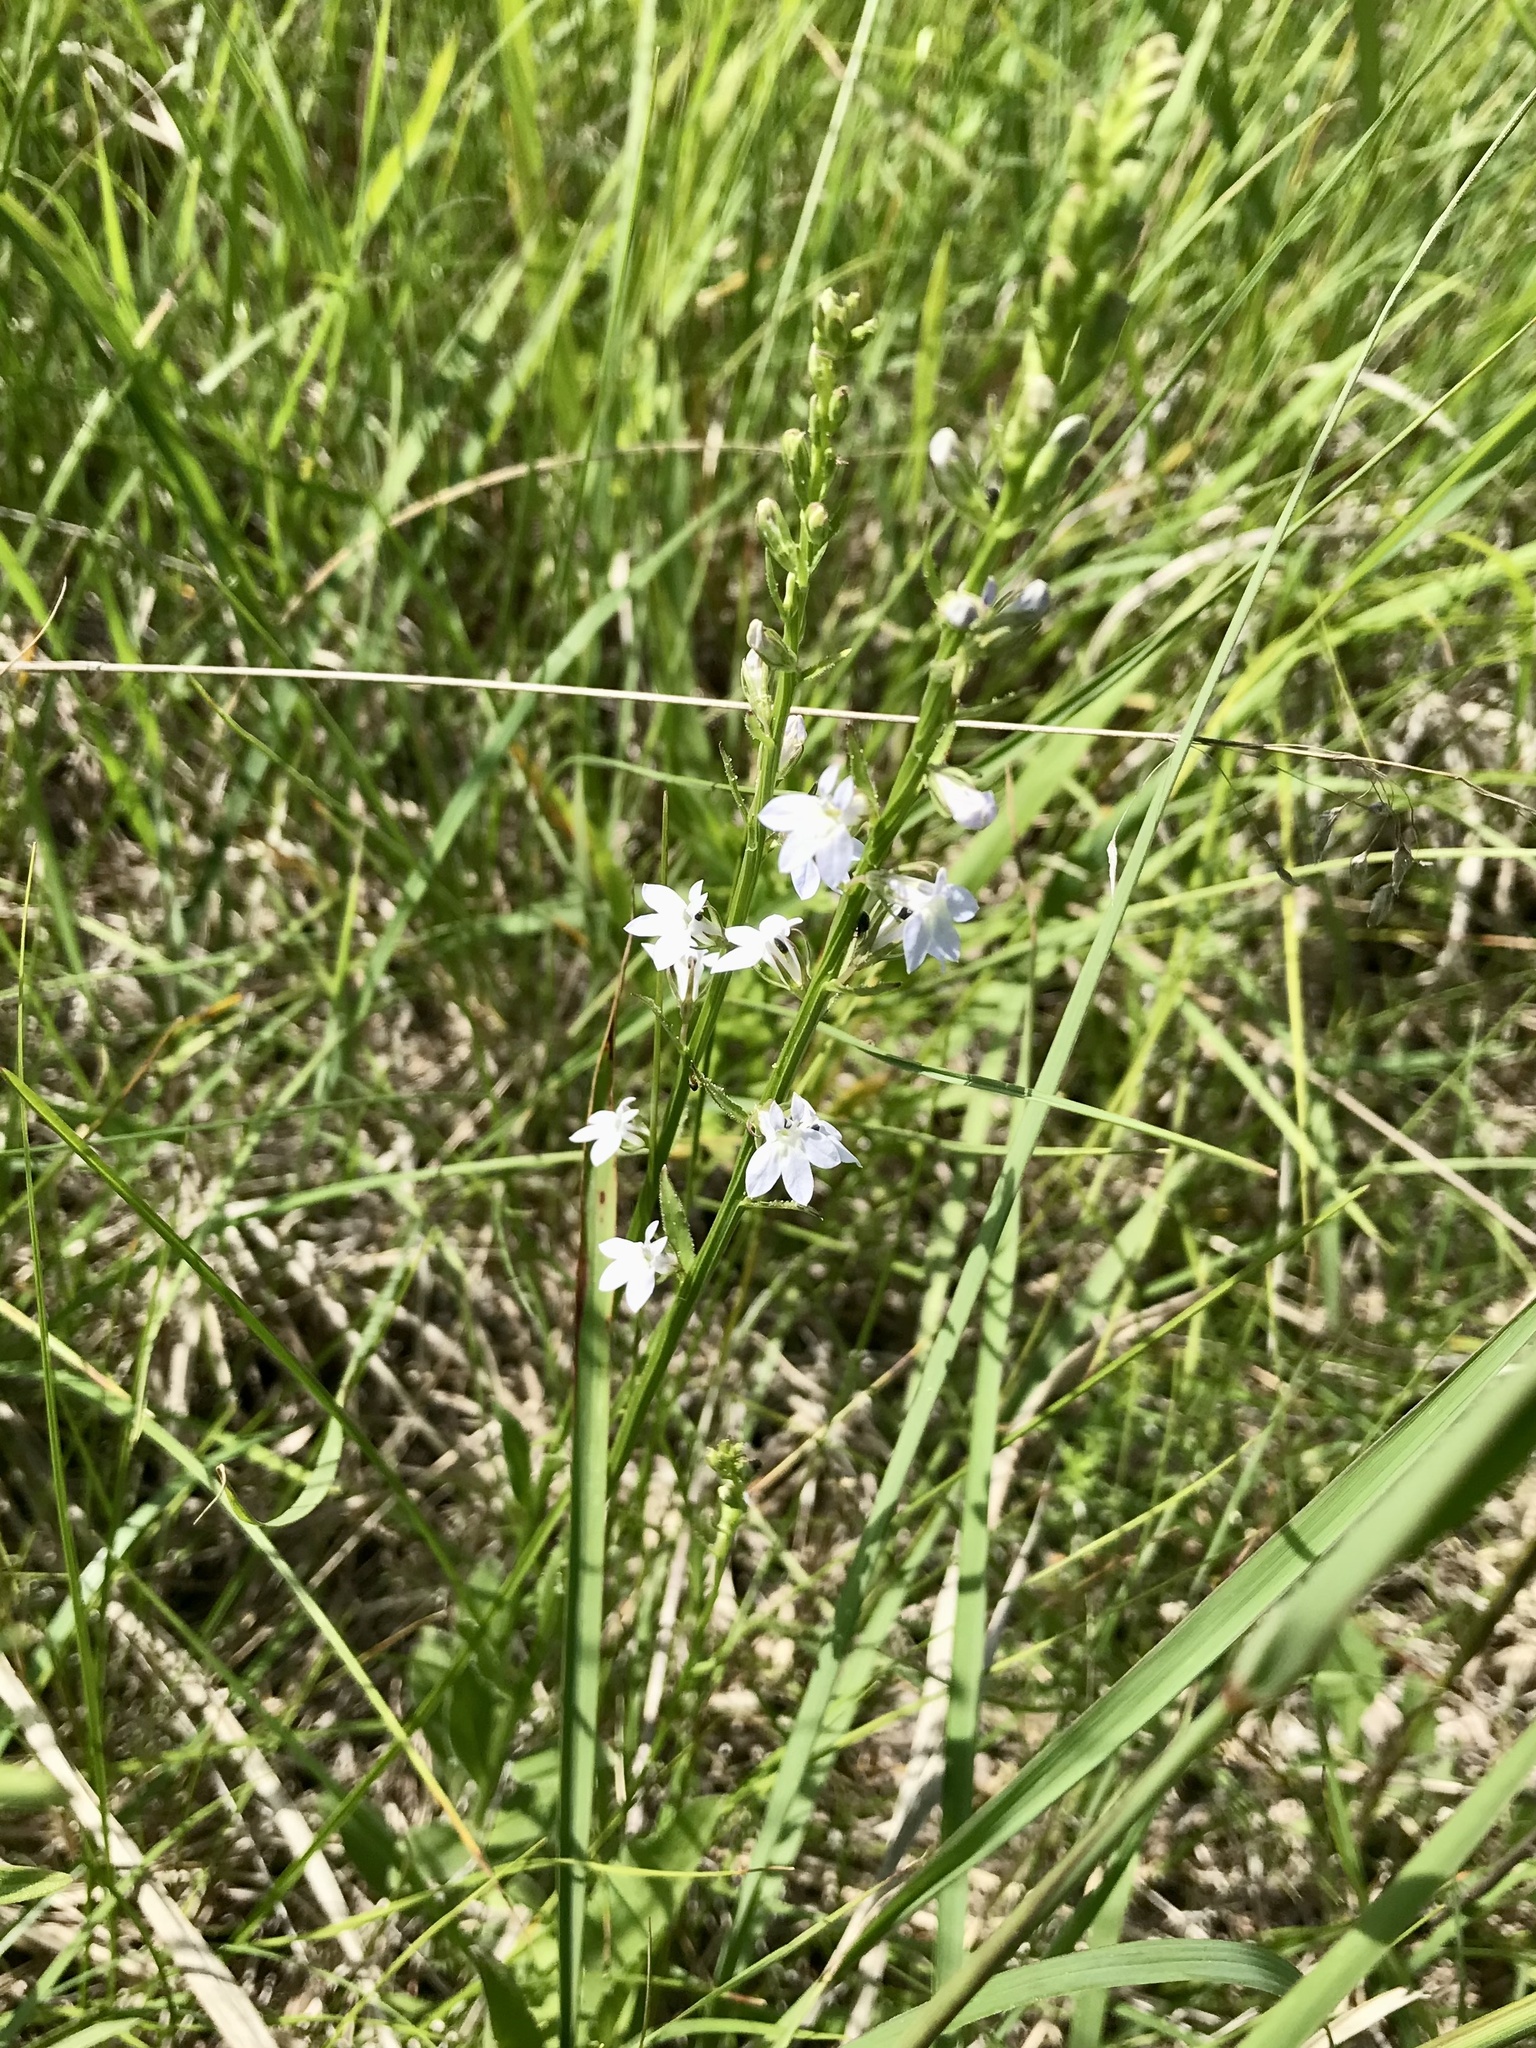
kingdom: Plantae
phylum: Tracheophyta
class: Magnoliopsida
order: Asterales
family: Campanulaceae
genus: Lobelia
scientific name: Lobelia spicata
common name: Pale-spike lobelia
